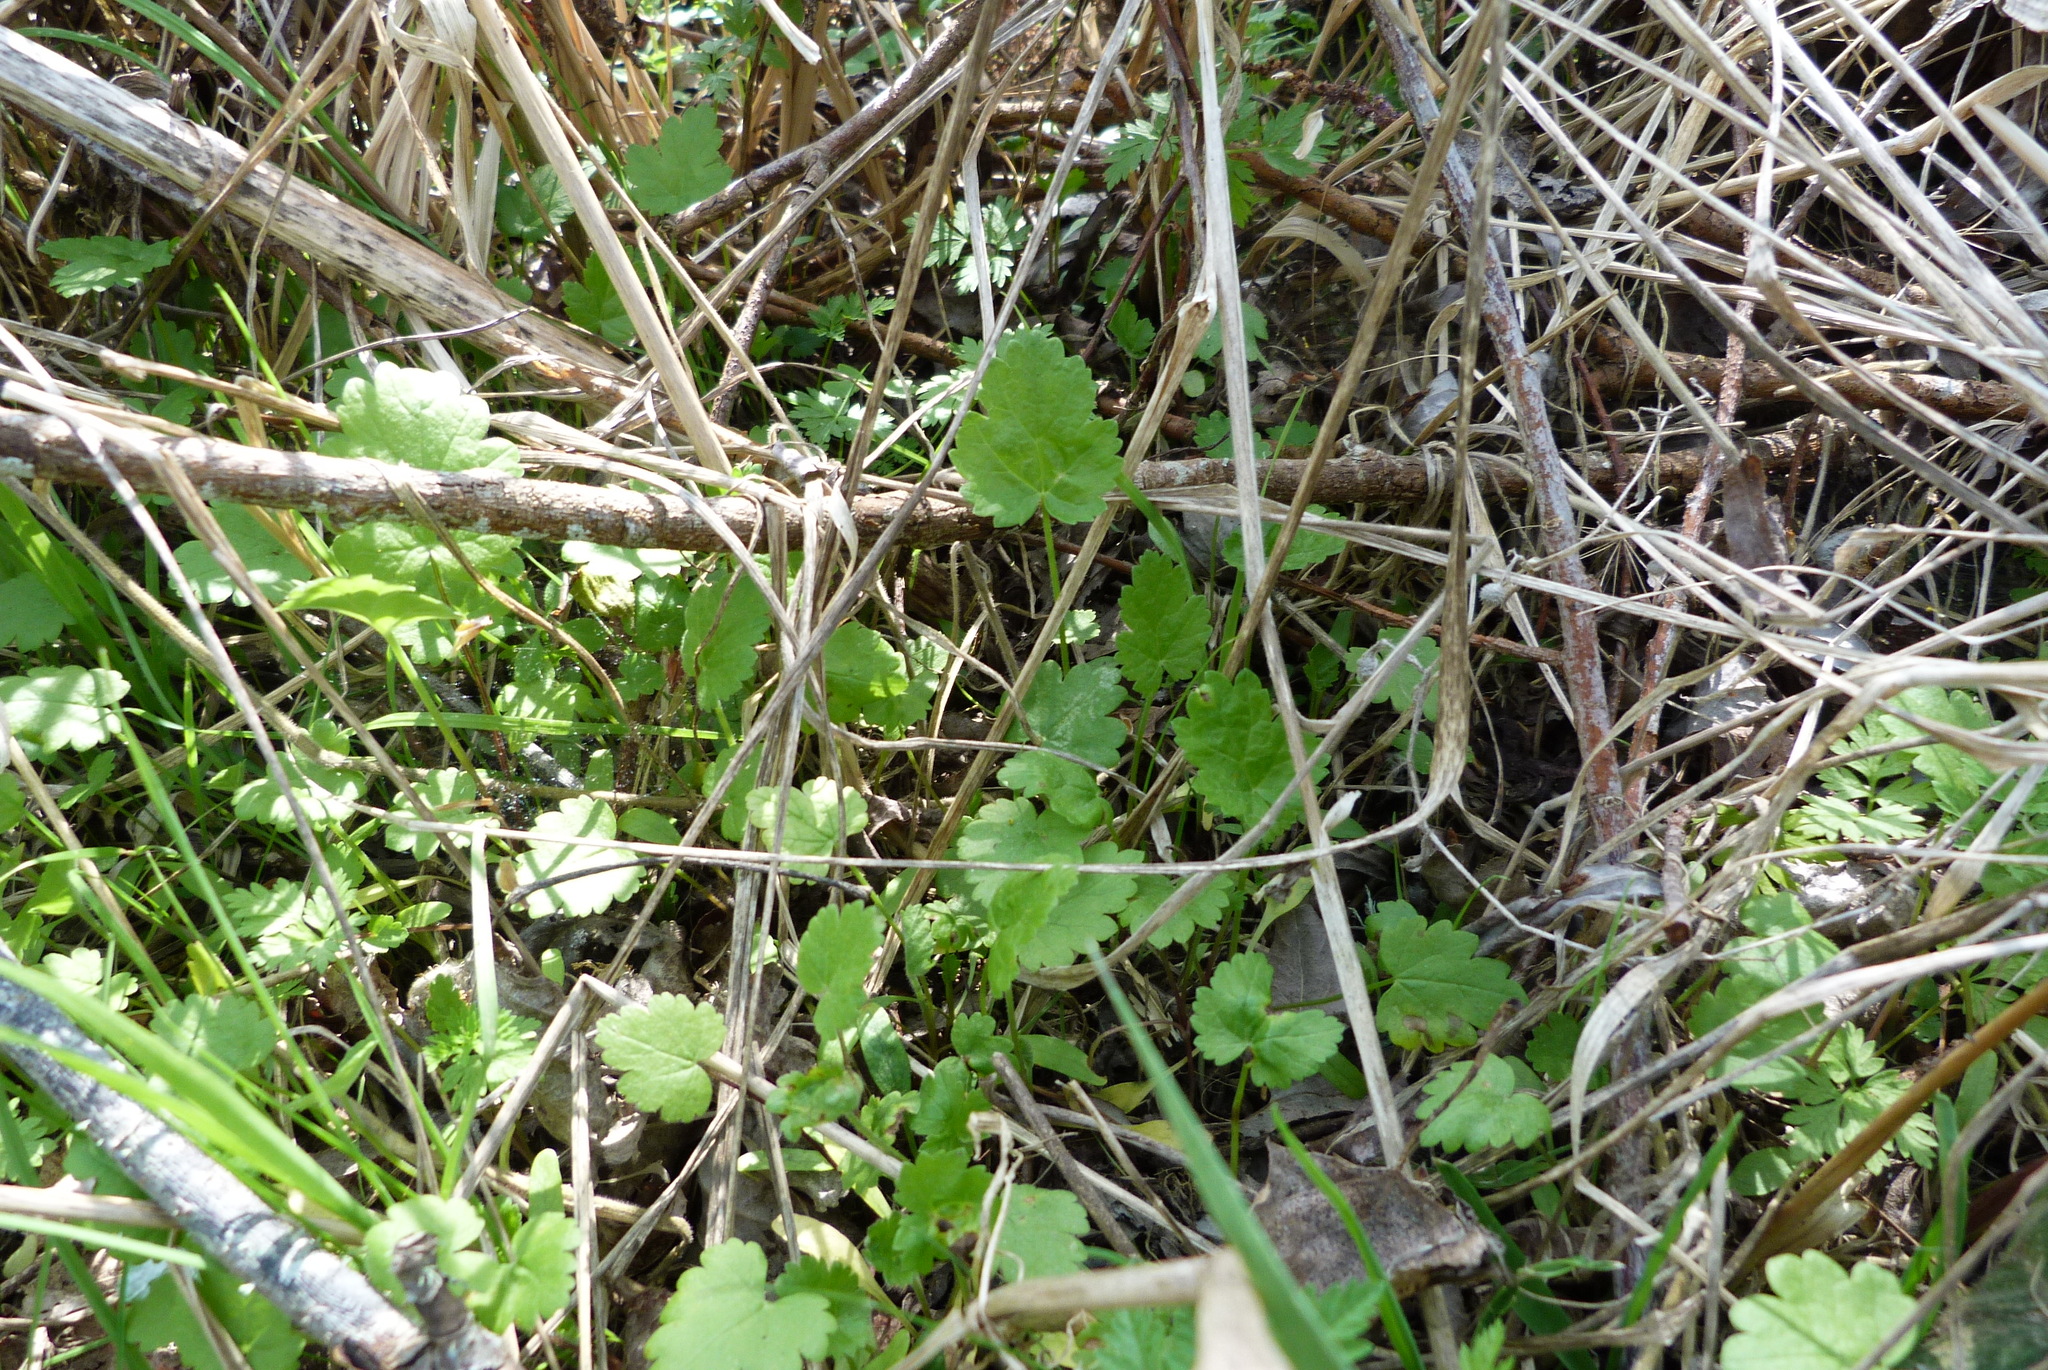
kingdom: Plantae
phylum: Tracheophyta
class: Magnoliopsida
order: Malvales
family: Malvaceae
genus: Modiola
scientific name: Modiola caroliniana
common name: Carolina bristlemallow
